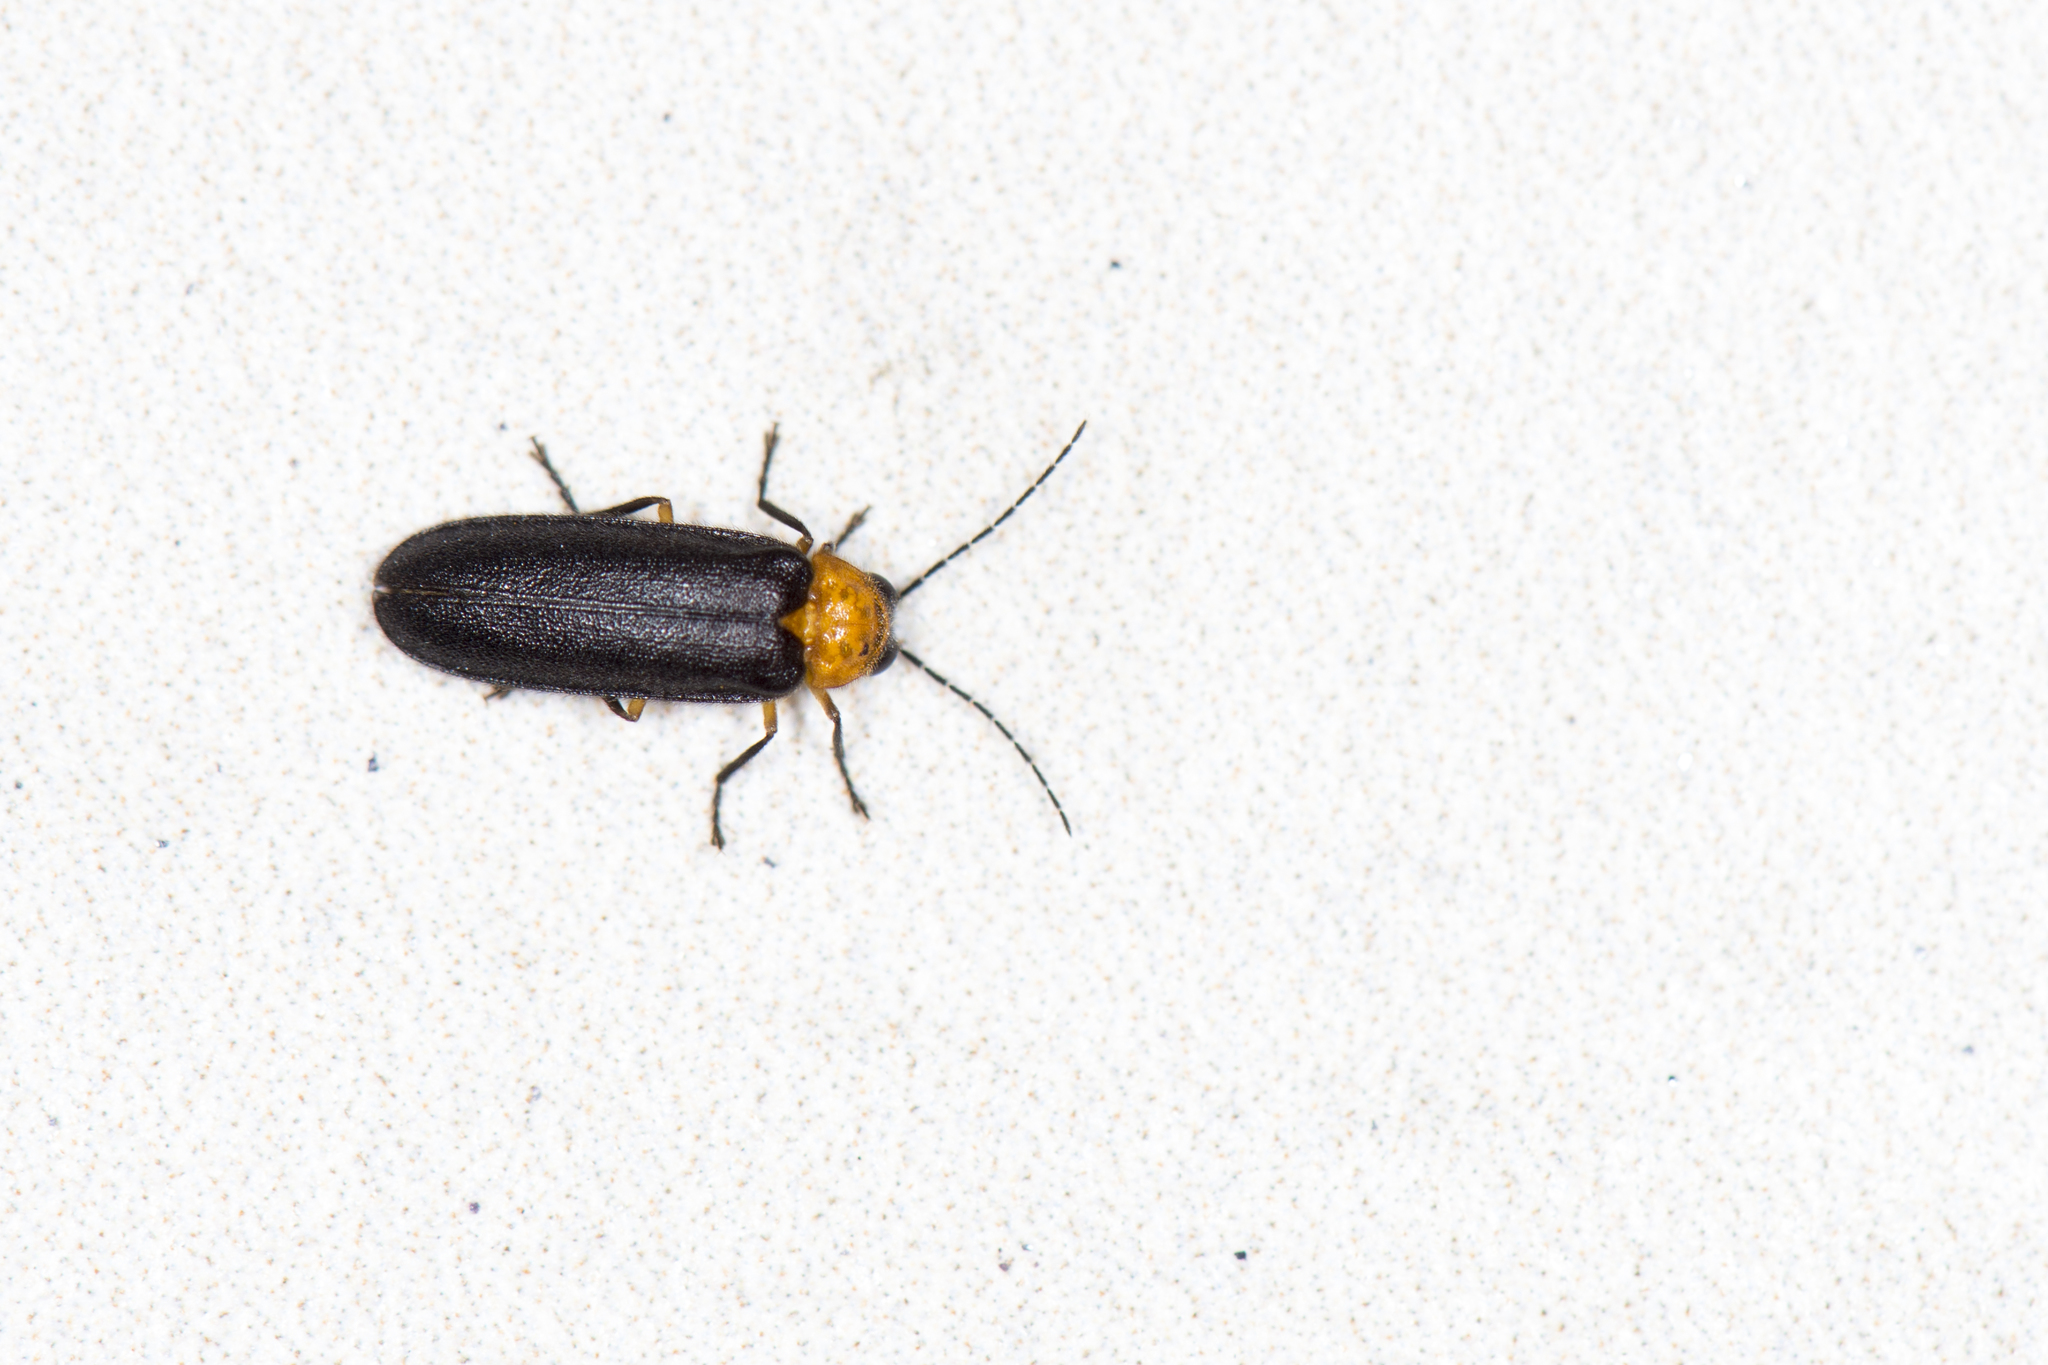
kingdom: Animalia
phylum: Arthropoda
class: Insecta
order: Coleoptera
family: Lampyridae
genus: Abscondita
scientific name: Abscondita cerata
